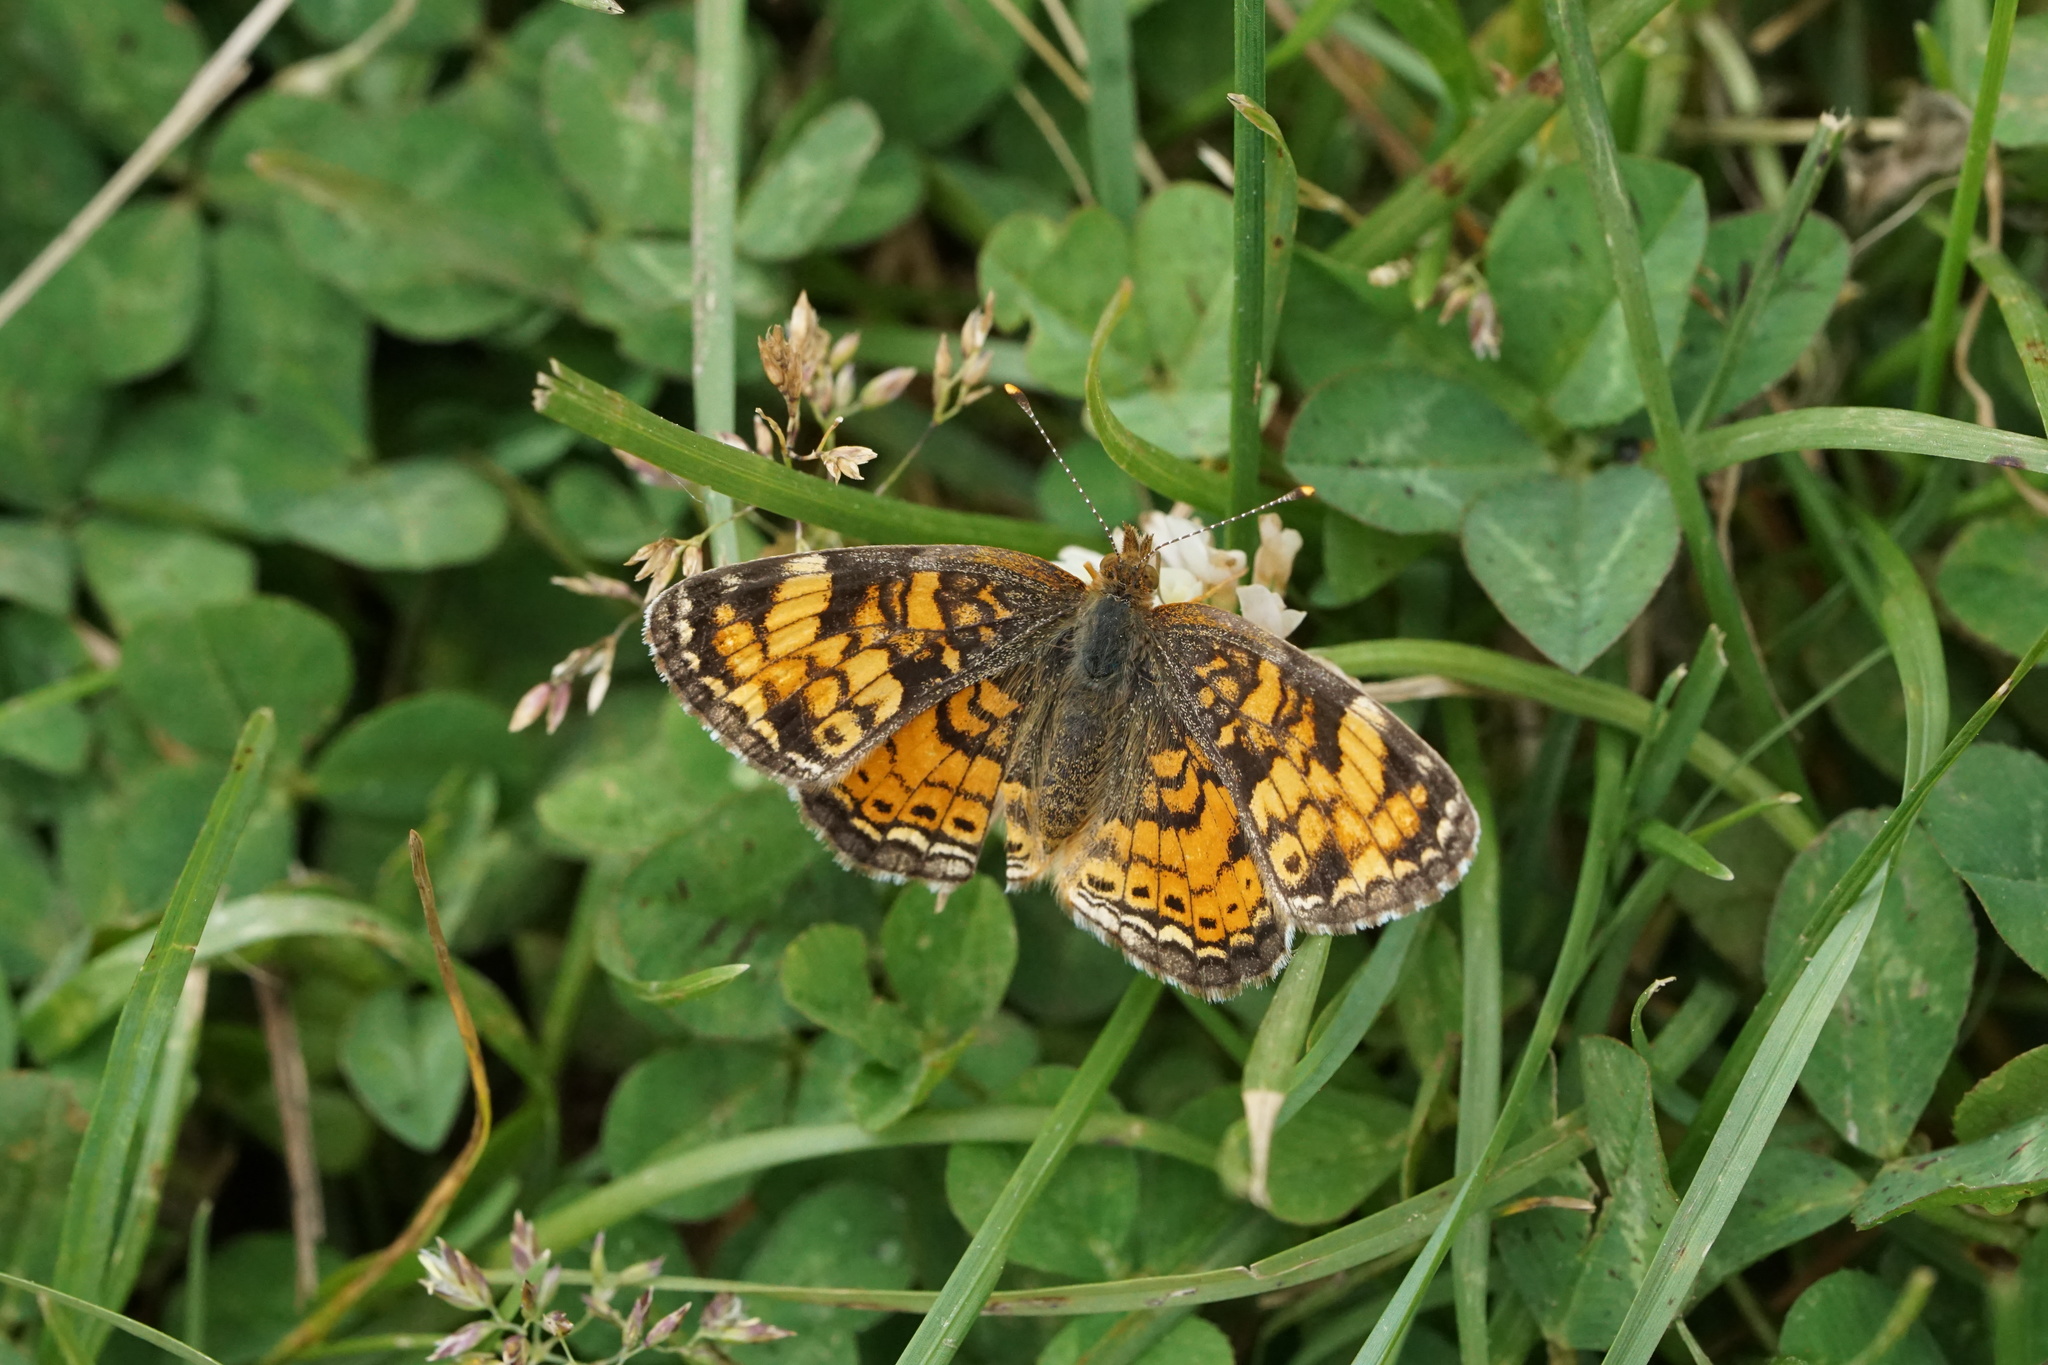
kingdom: Animalia
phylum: Arthropoda
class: Insecta
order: Lepidoptera
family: Nymphalidae
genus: Phyciodes
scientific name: Phyciodes tharos
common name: Pearl crescent
